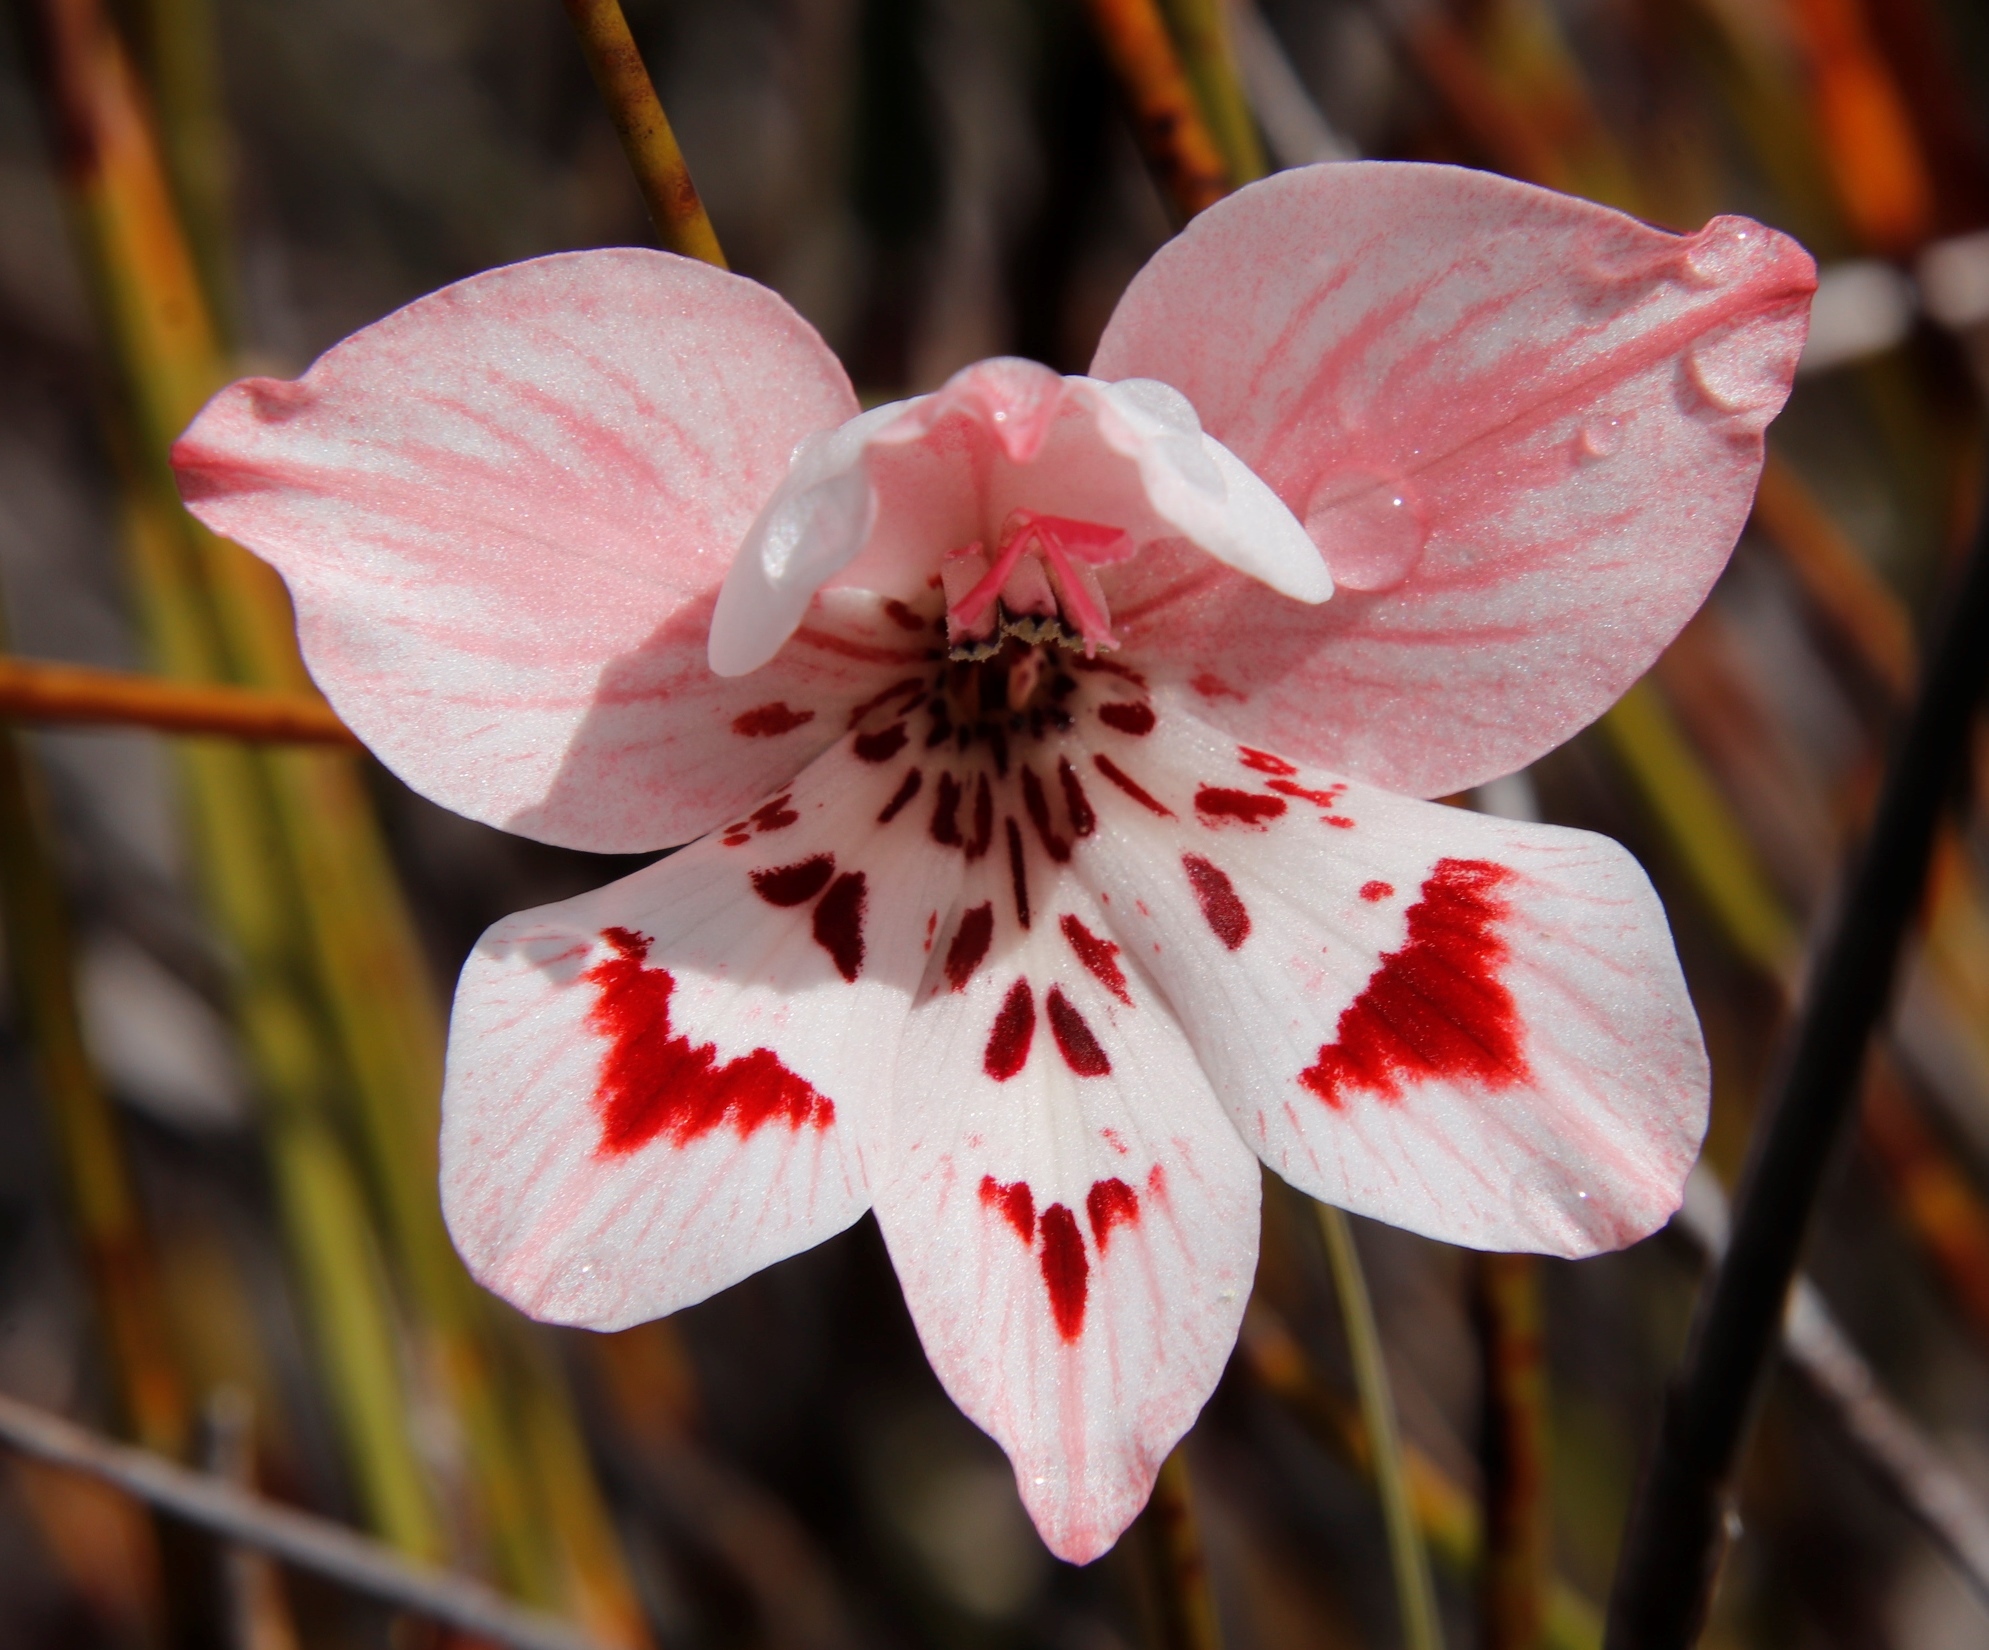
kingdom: Plantae
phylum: Tracheophyta
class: Liliopsida
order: Asparagales
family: Iridaceae
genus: Gladiolus
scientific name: Gladiolus debilis
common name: Painted-lady
